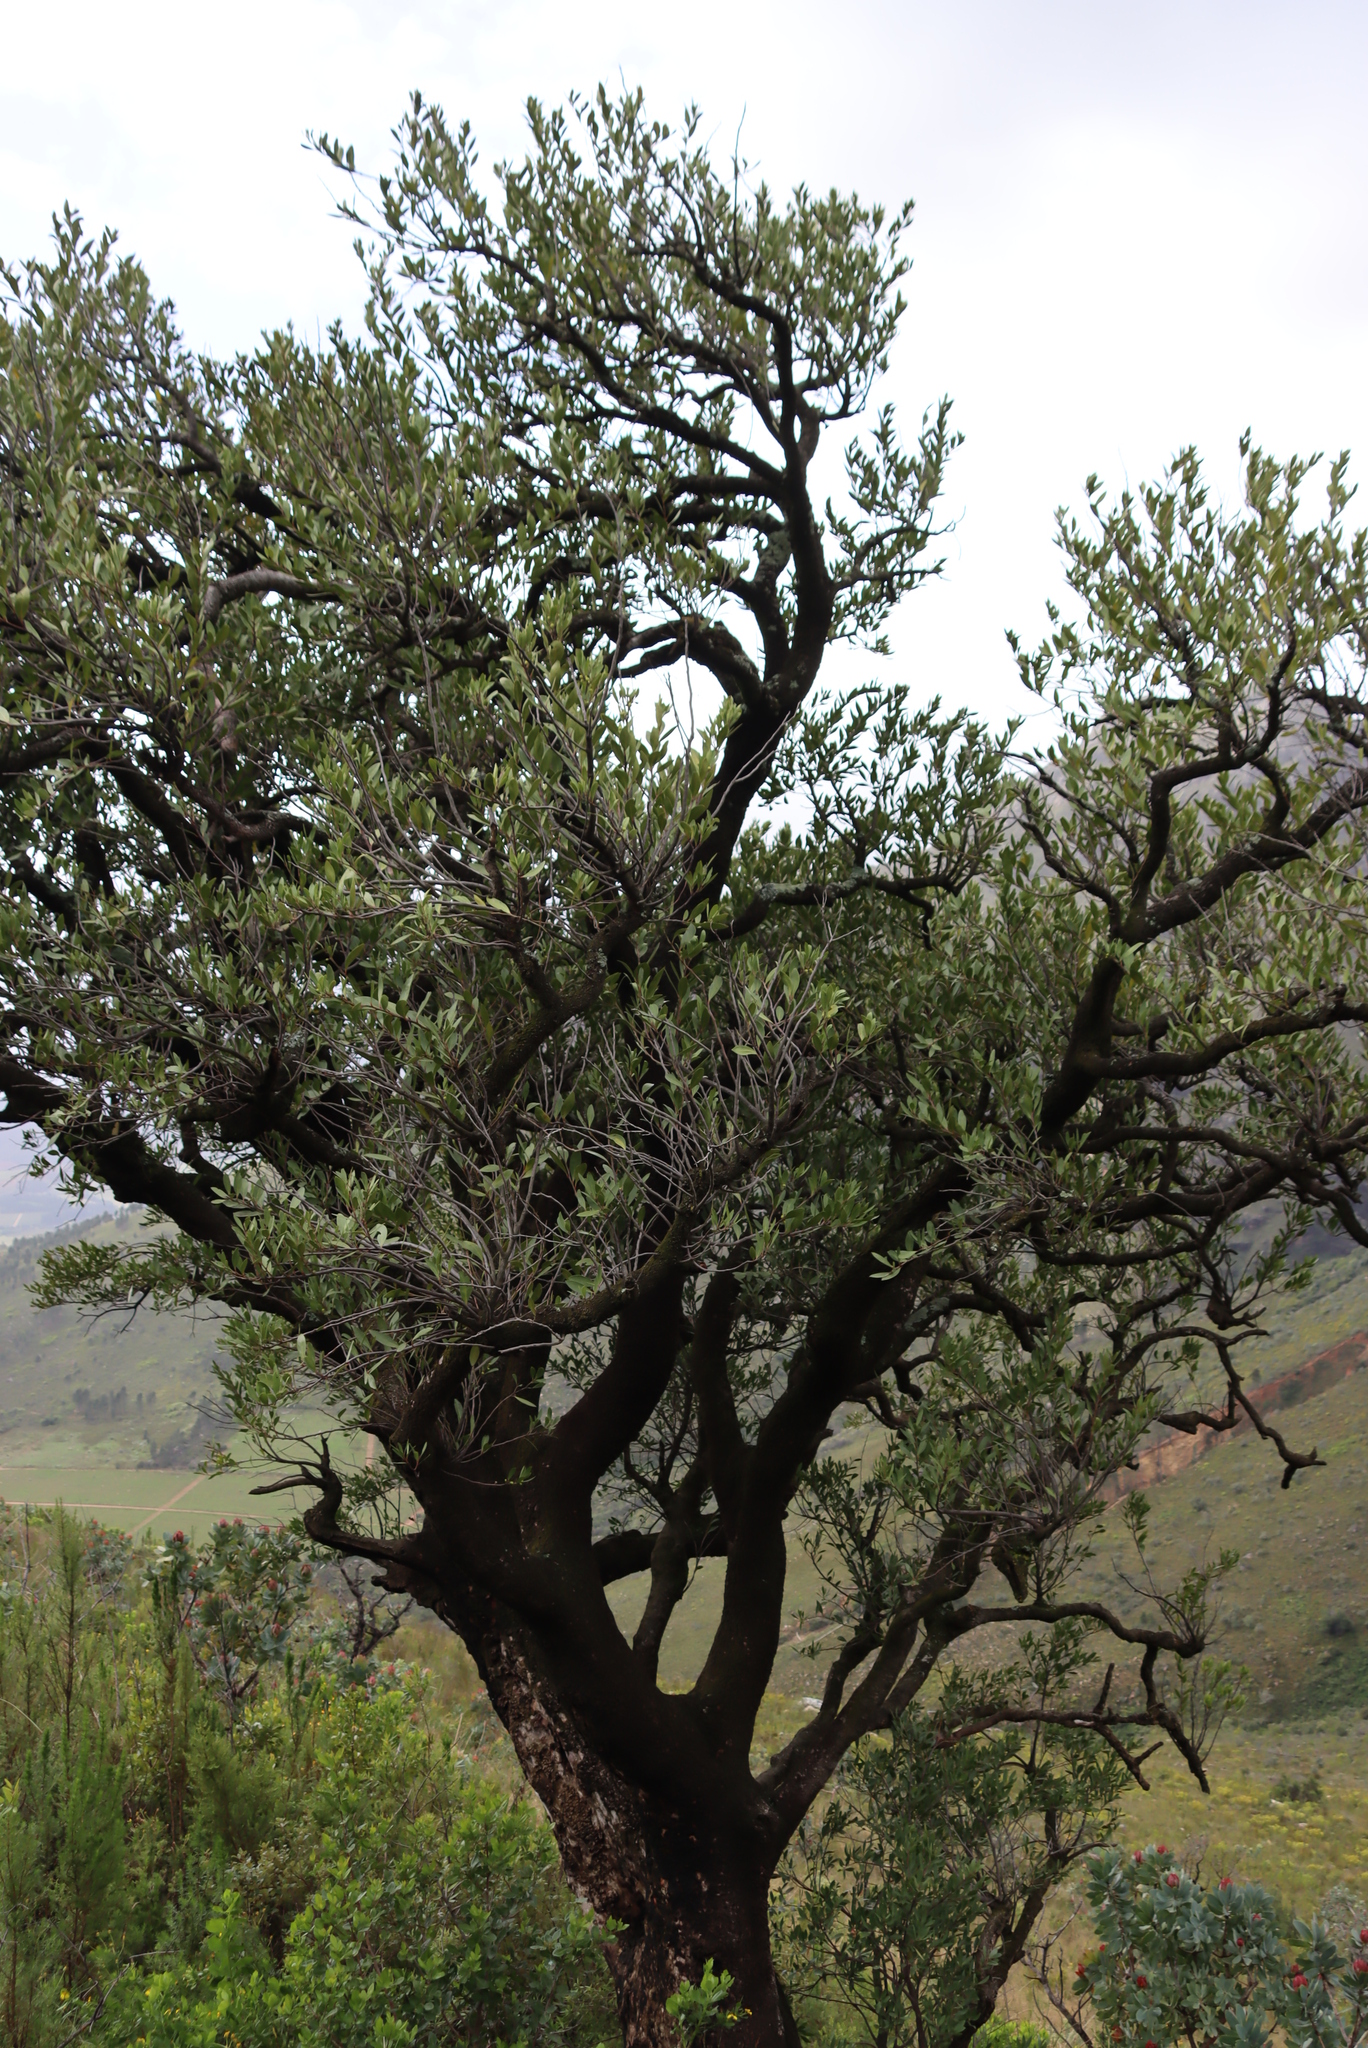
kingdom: Plantae
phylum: Tracheophyta
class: Magnoliopsida
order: Celastrales
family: Celastraceae
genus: Gymnosporia
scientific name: Gymnosporia laurina
